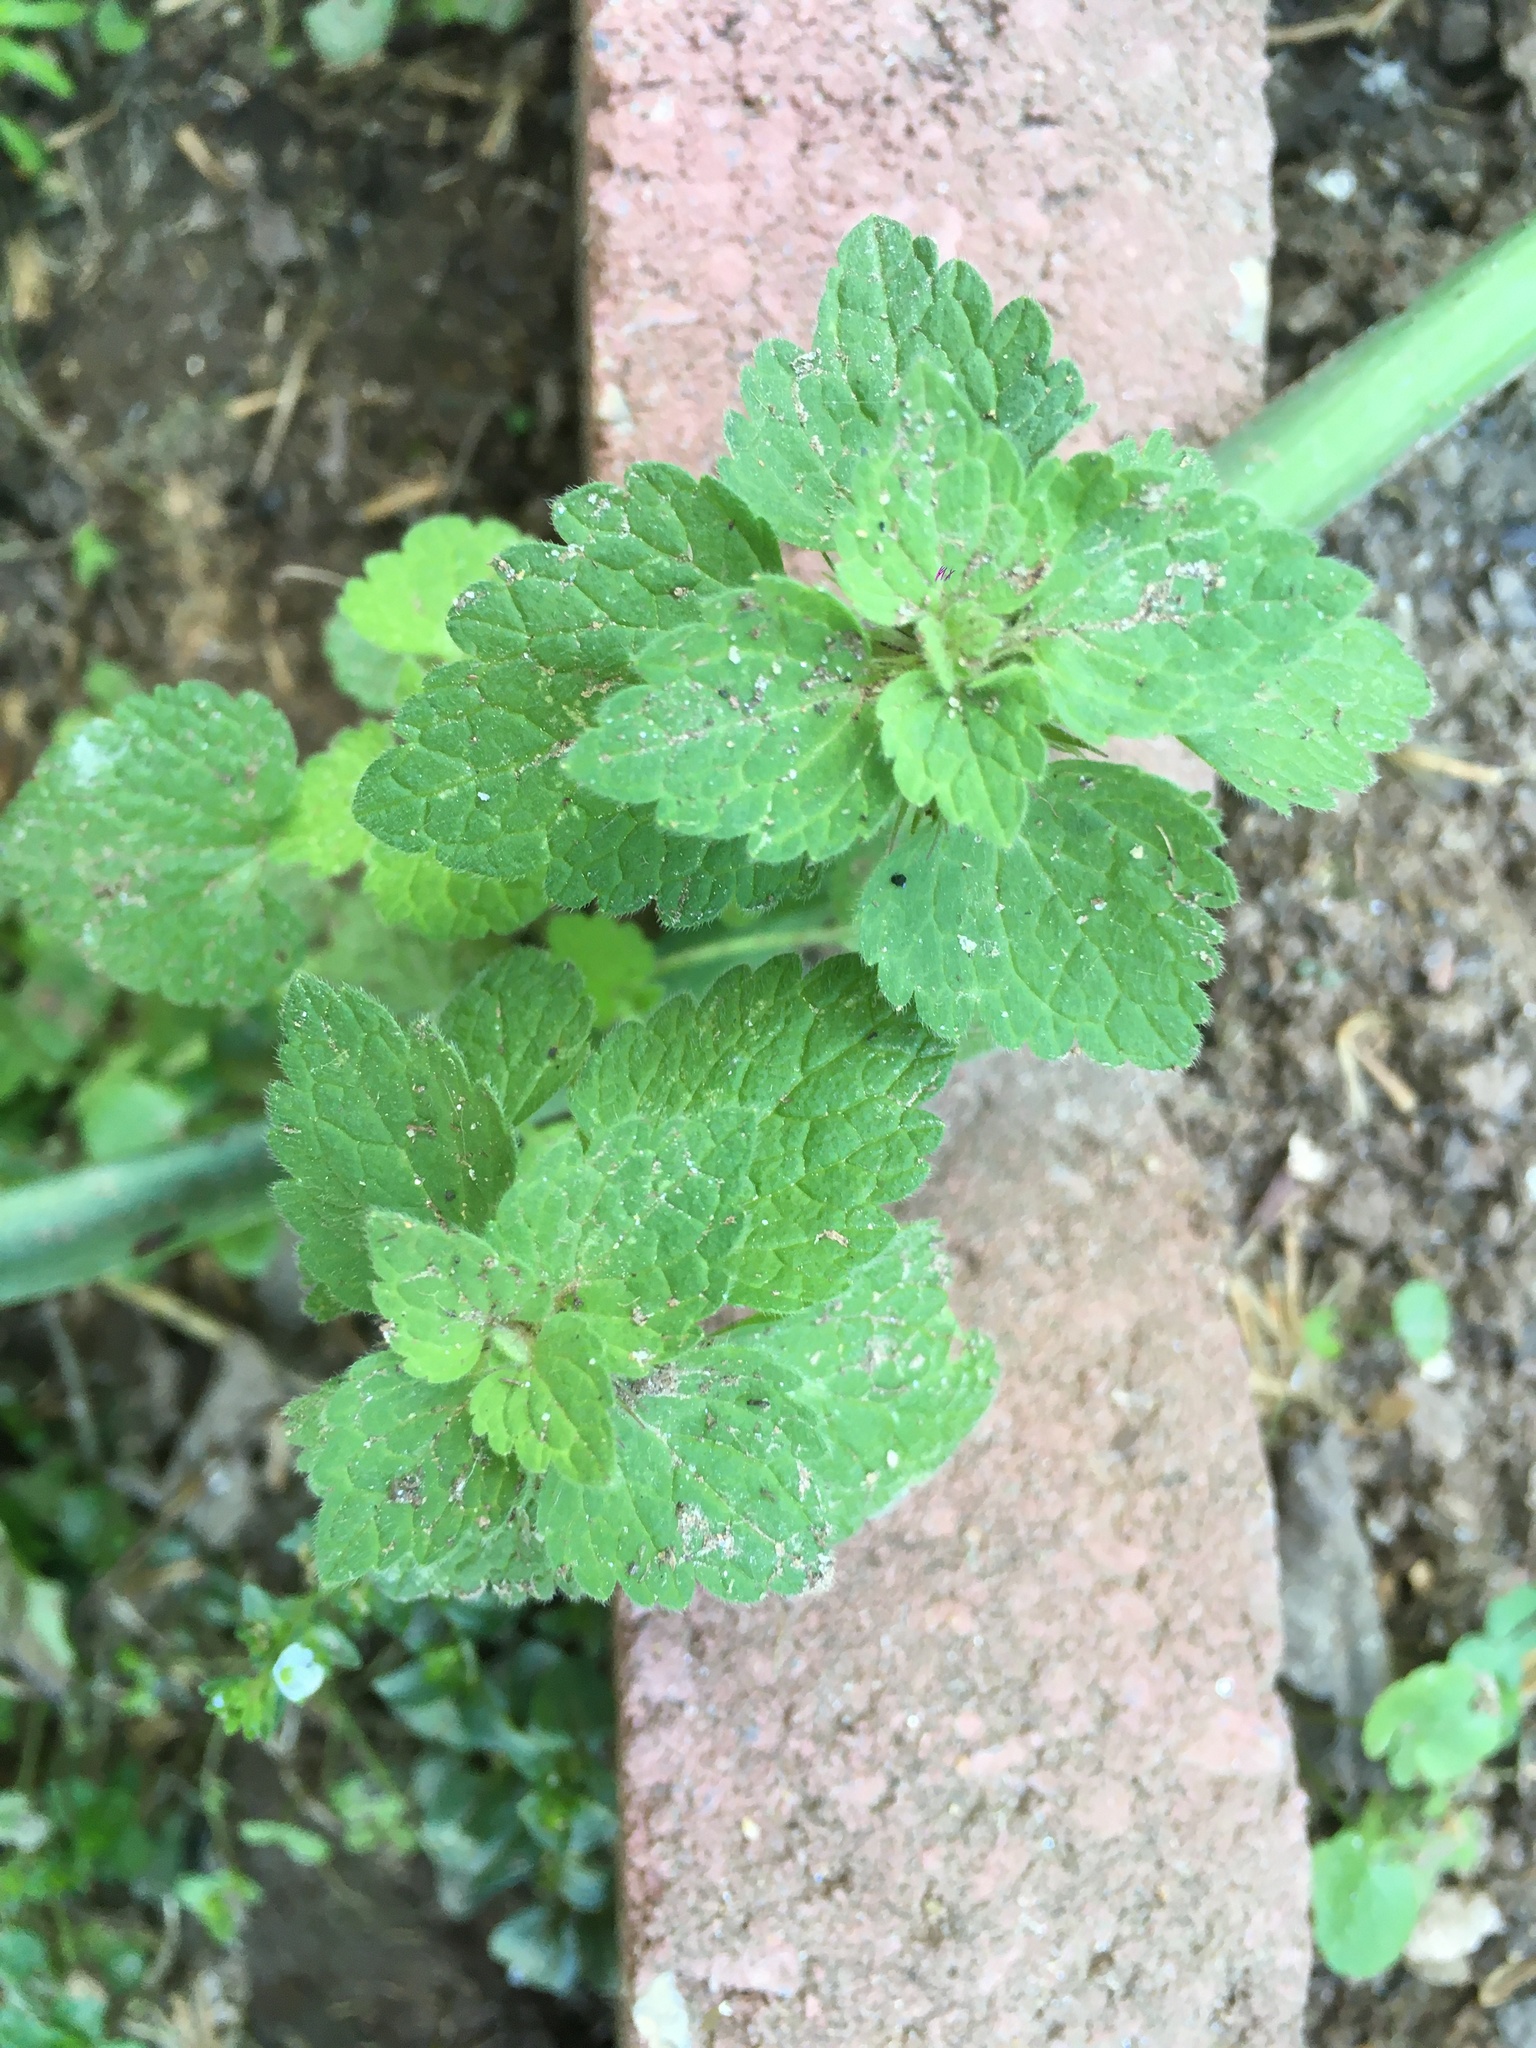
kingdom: Plantae
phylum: Tracheophyta
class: Magnoliopsida
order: Lamiales
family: Lamiaceae
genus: Lamium
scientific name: Lamium purpureum
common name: Red dead-nettle
